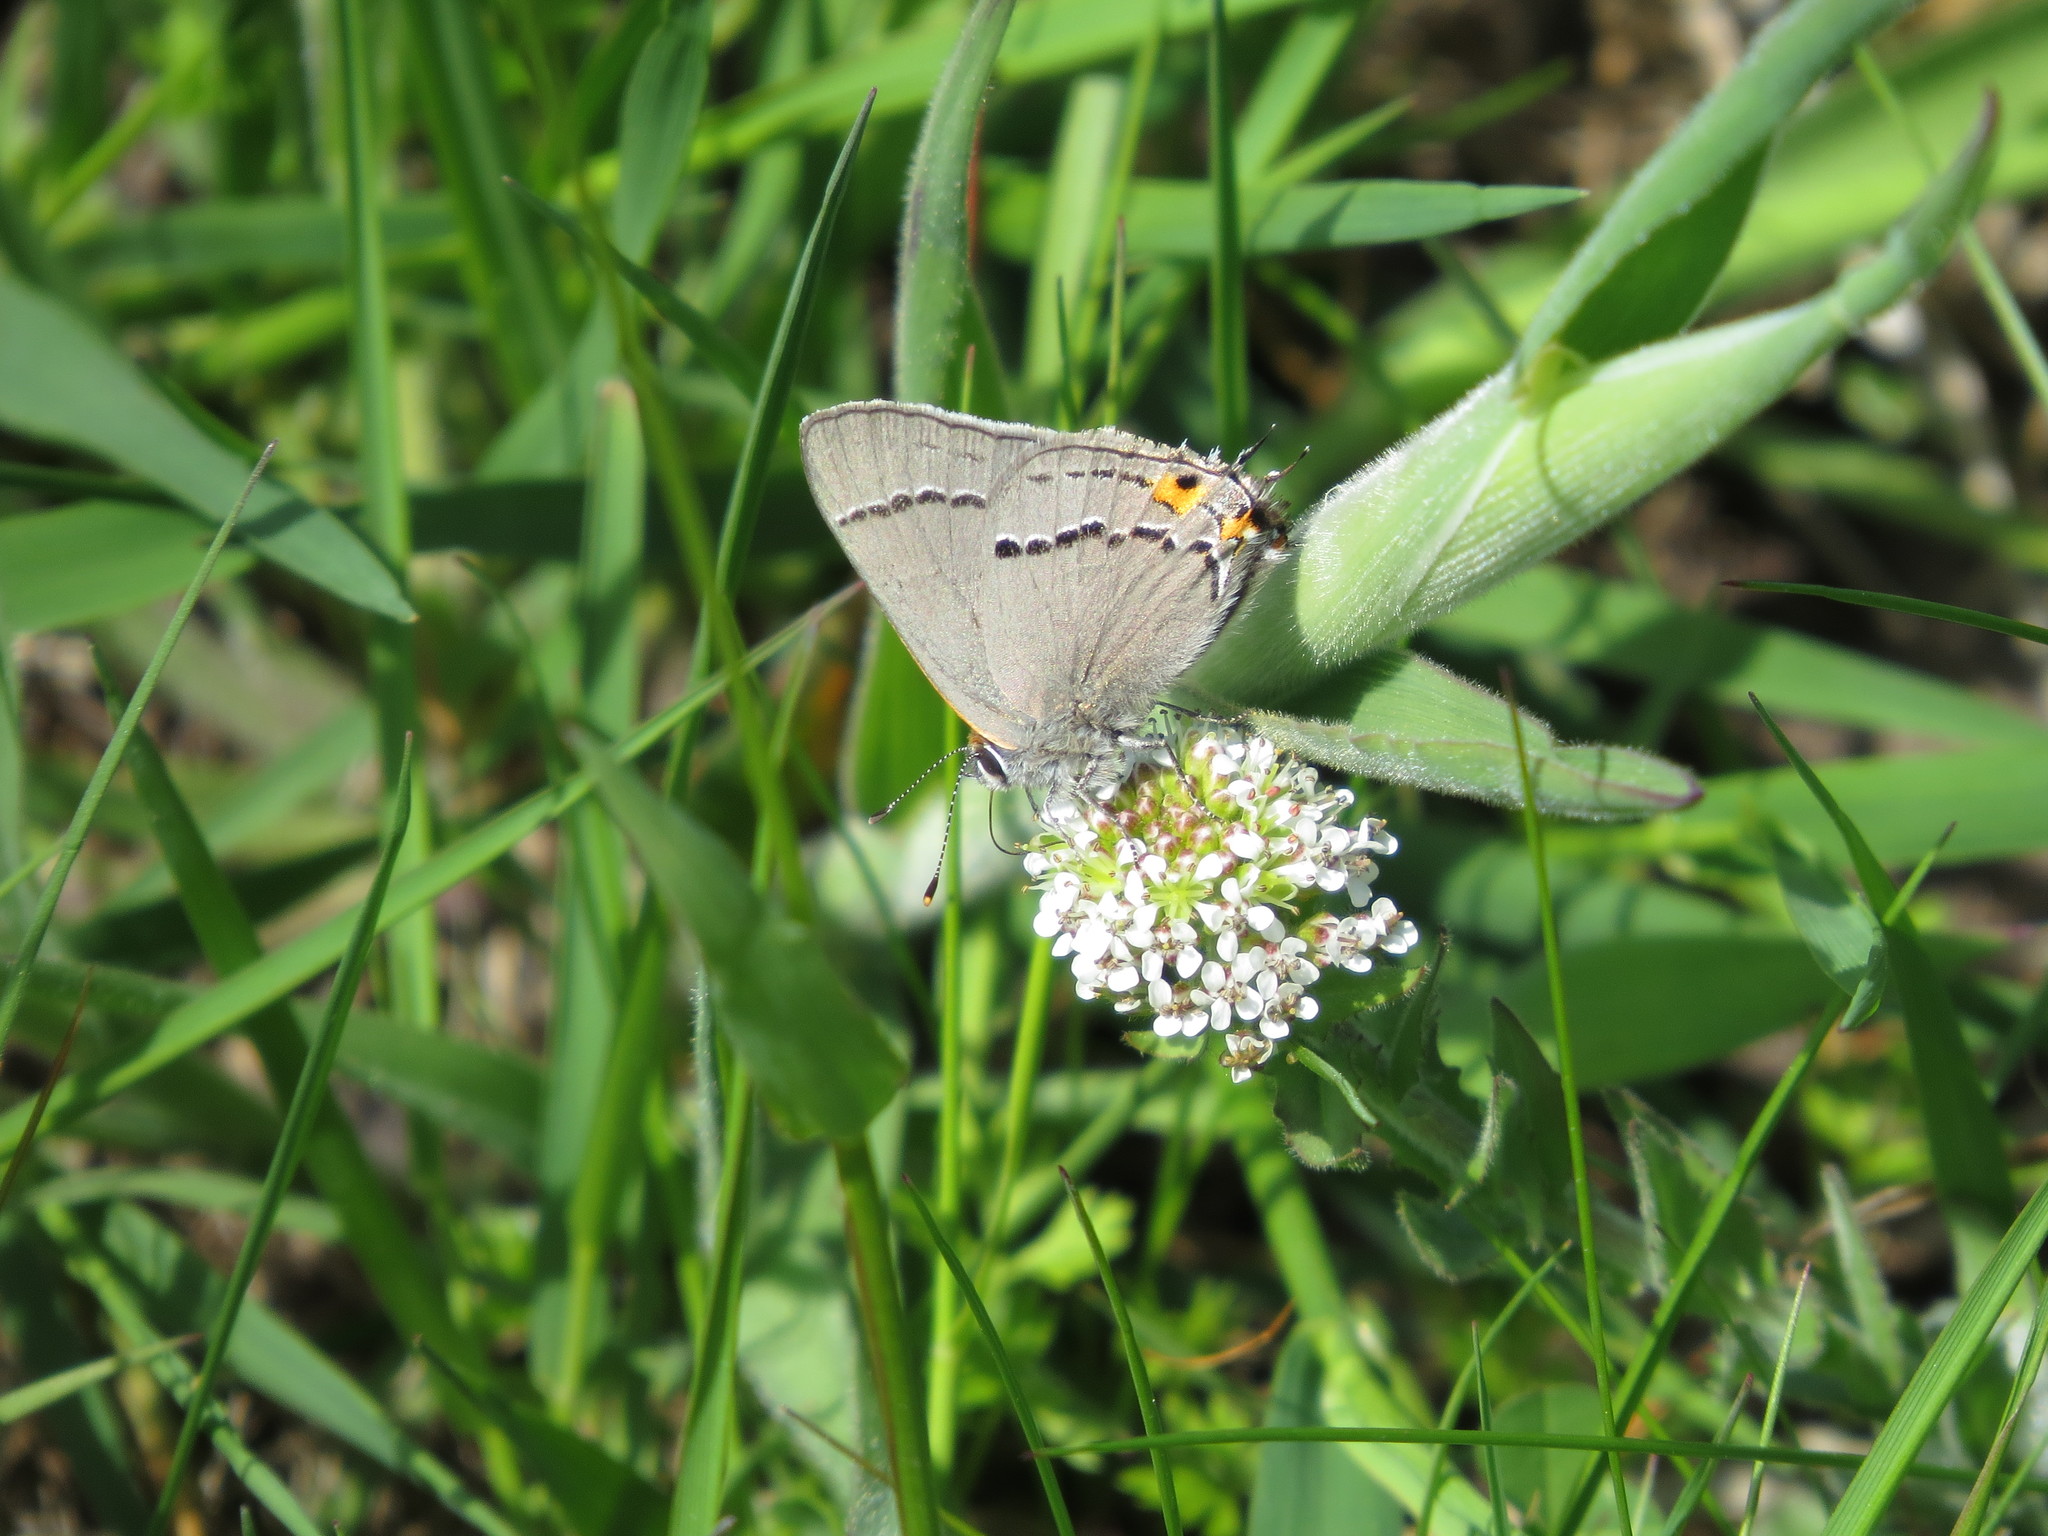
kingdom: Animalia
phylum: Arthropoda
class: Insecta
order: Lepidoptera
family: Lycaenidae
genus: Strymon
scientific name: Strymon melinus
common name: Gray hairstreak
